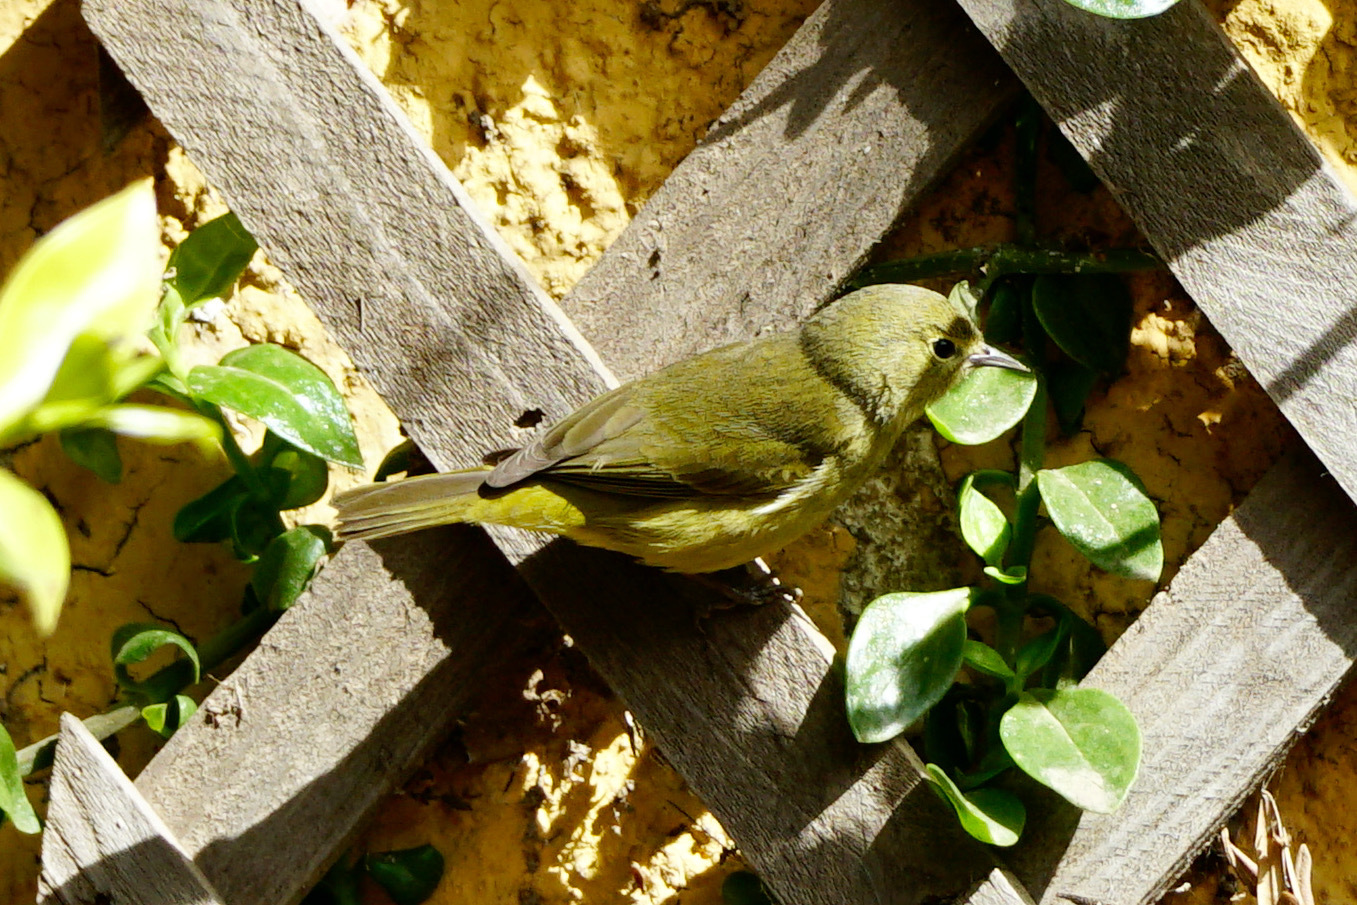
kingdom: Animalia
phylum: Chordata
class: Aves
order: Passeriformes
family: Parulidae
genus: Leiothlypis
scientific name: Leiothlypis celata
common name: Orange-crowned warbler
